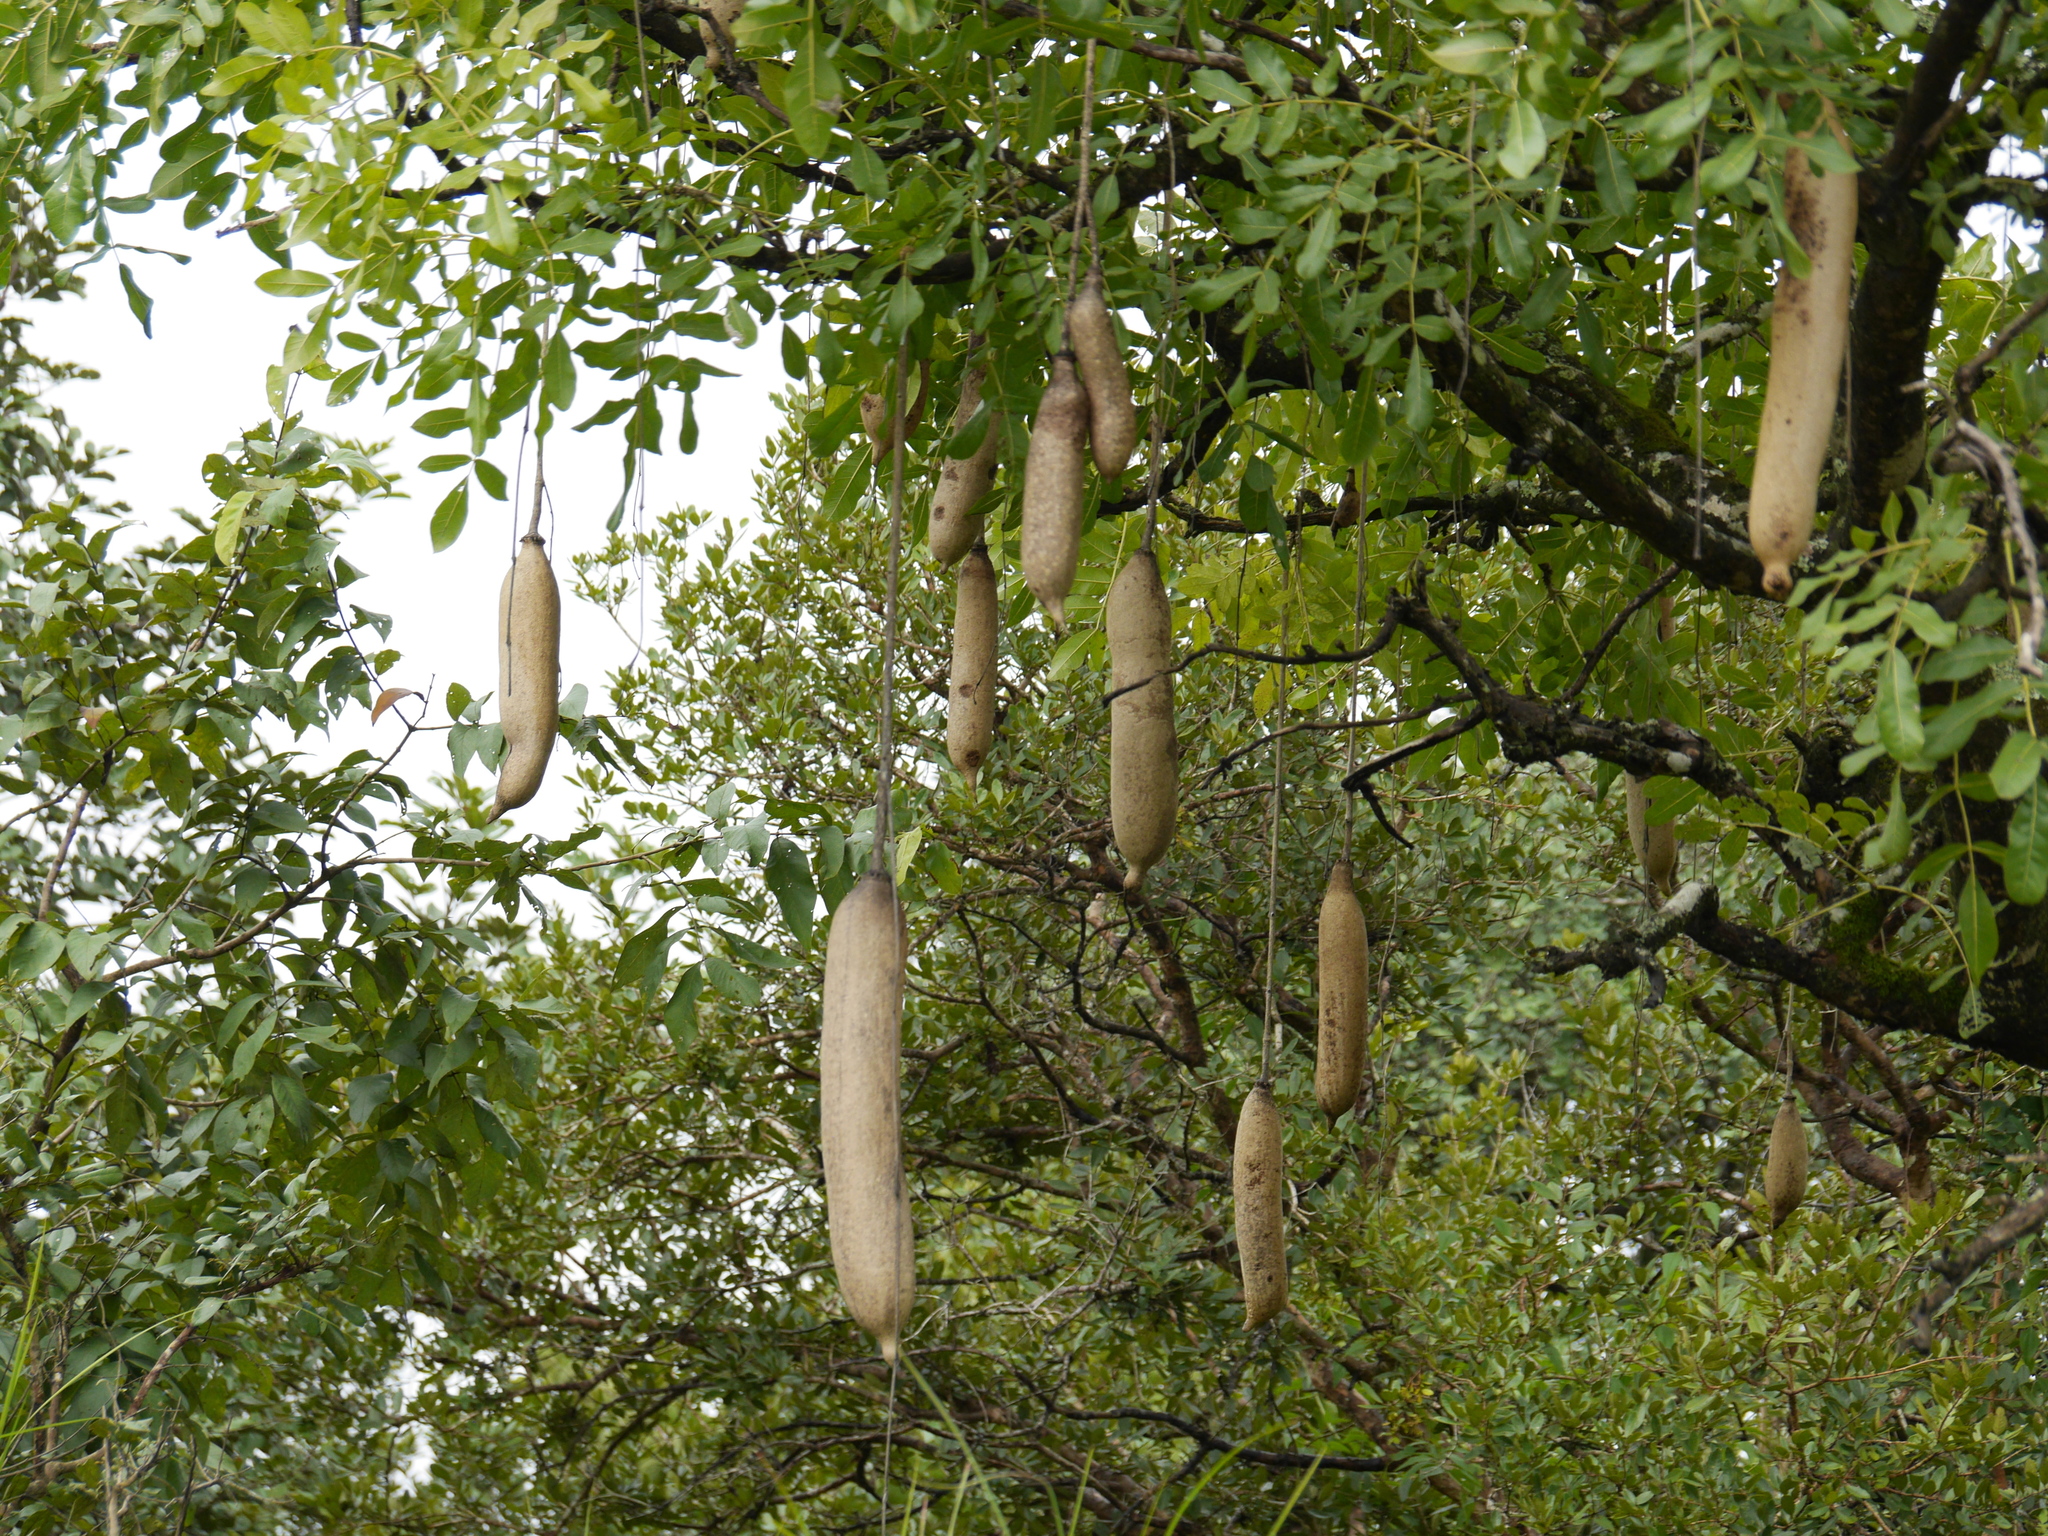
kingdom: Plantae
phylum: Tracheophyta
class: Magnoliopsida
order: Lamiales
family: Bignoniaceae
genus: Kigelia
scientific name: Kigelia africana
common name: Sausage tree
